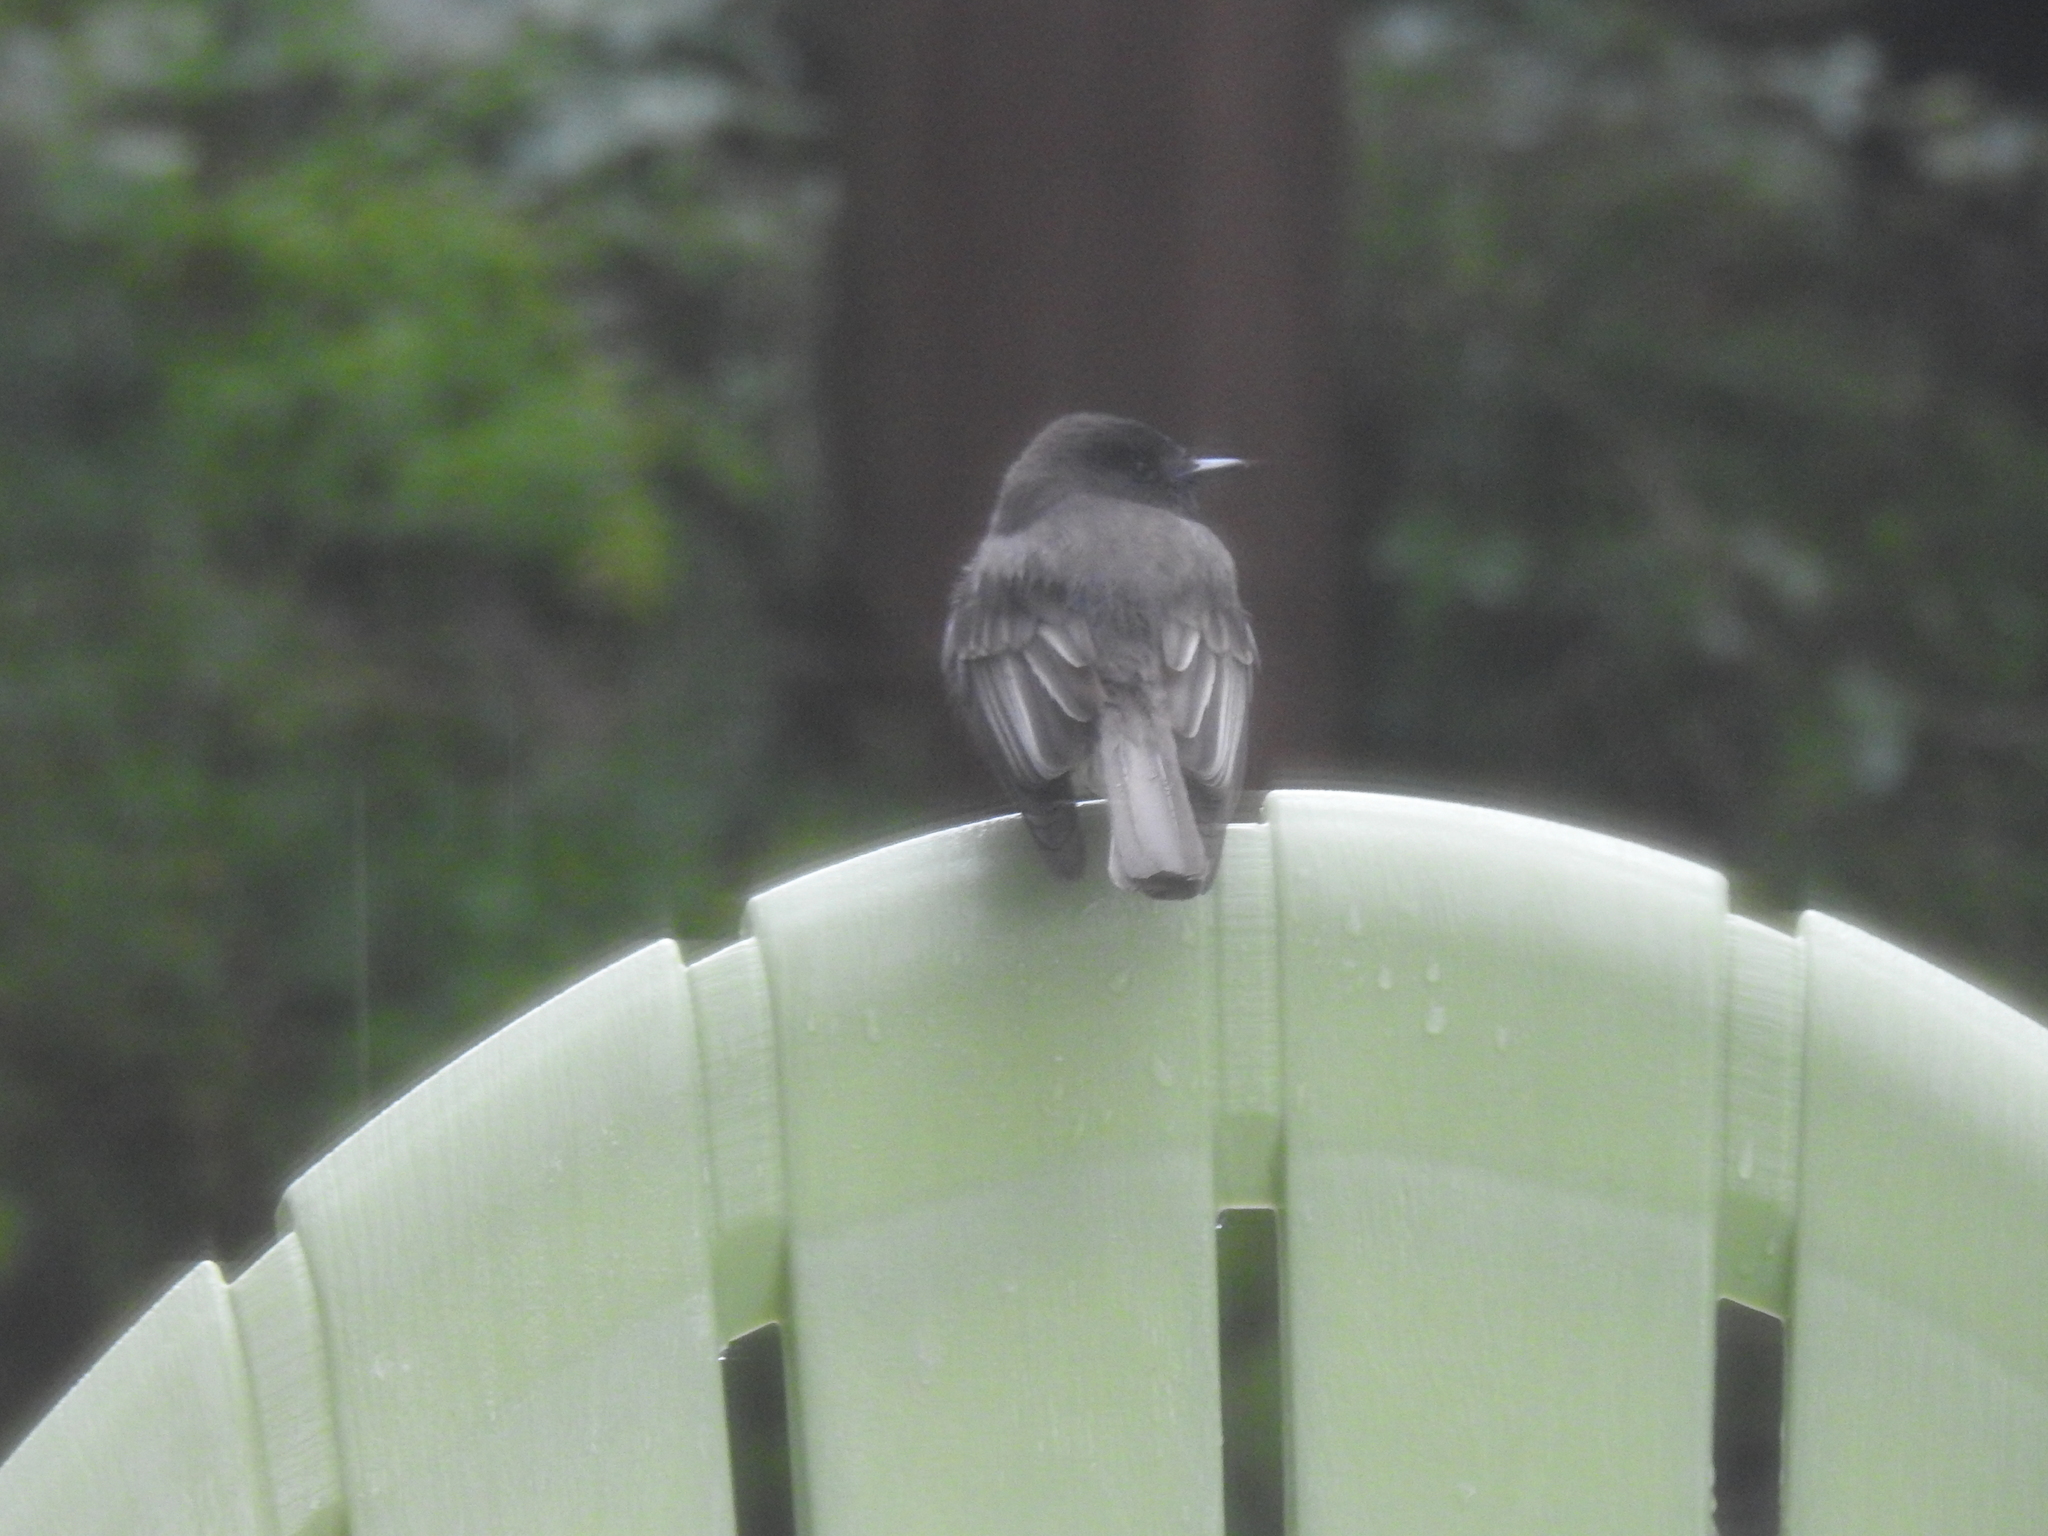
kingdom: Animalia
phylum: Chordata
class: Aves
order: Passeriformes
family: Tyrannidae
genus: Sayornis
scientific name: Sayornis nigricans
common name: Black phoebe
